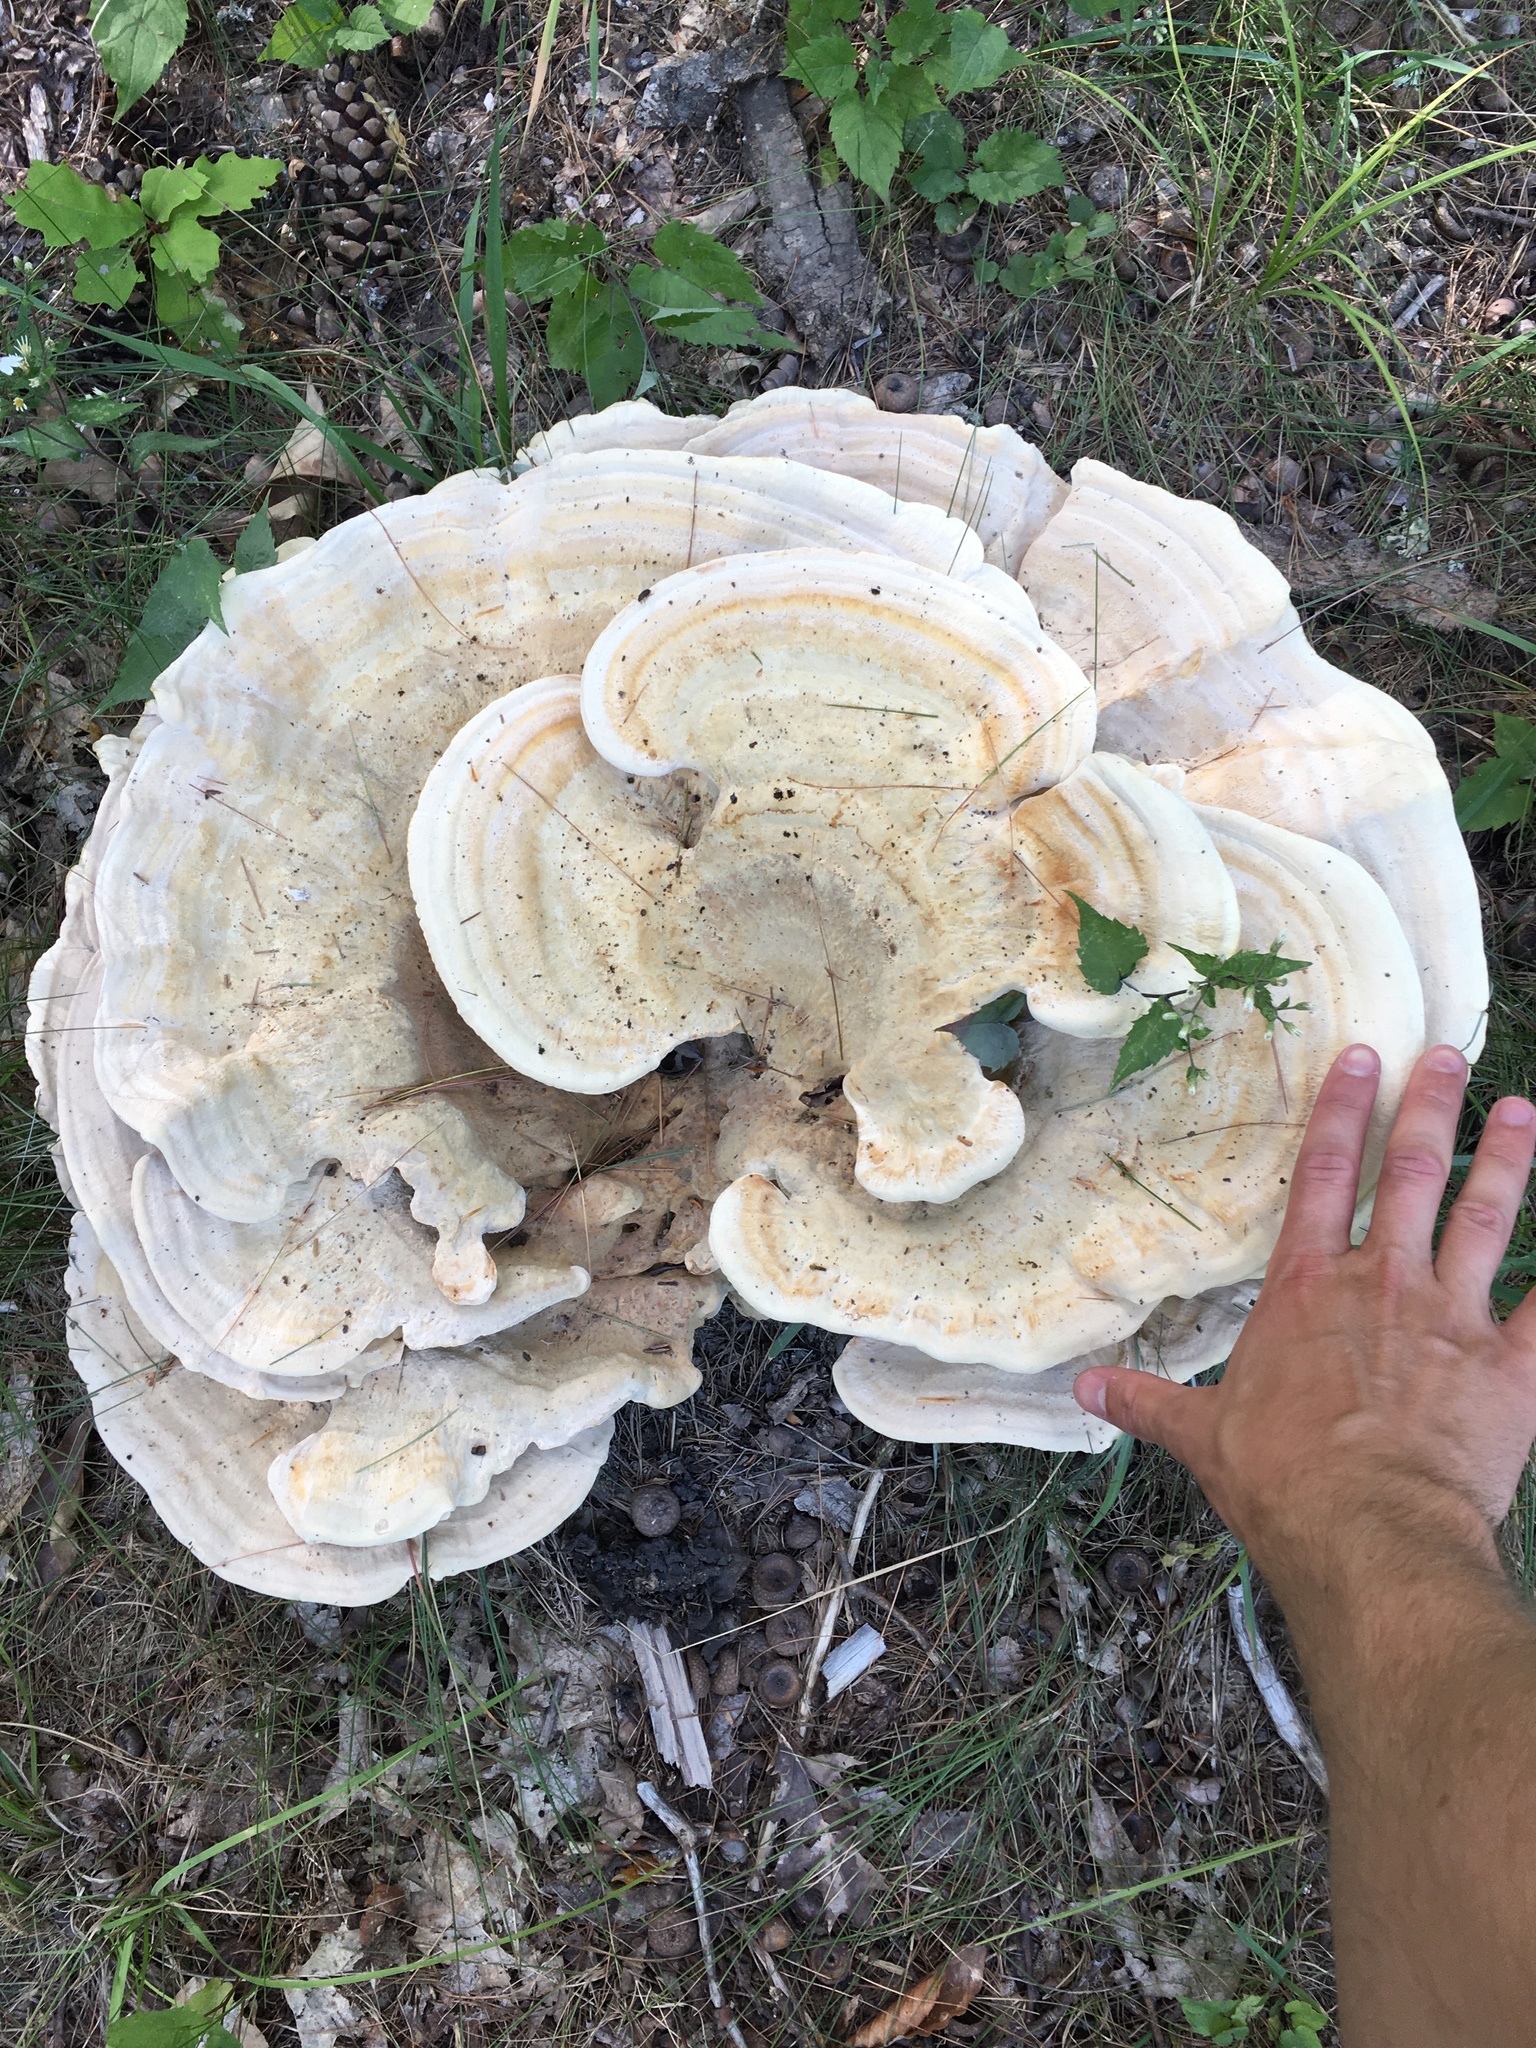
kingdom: Fungi
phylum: Basidiomycota
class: Agaricomycetes
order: Russulales
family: Bondarzewiaceae
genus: Bondarzewia
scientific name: Bondarzewia berkeleyi
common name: Berkeley's polypore
